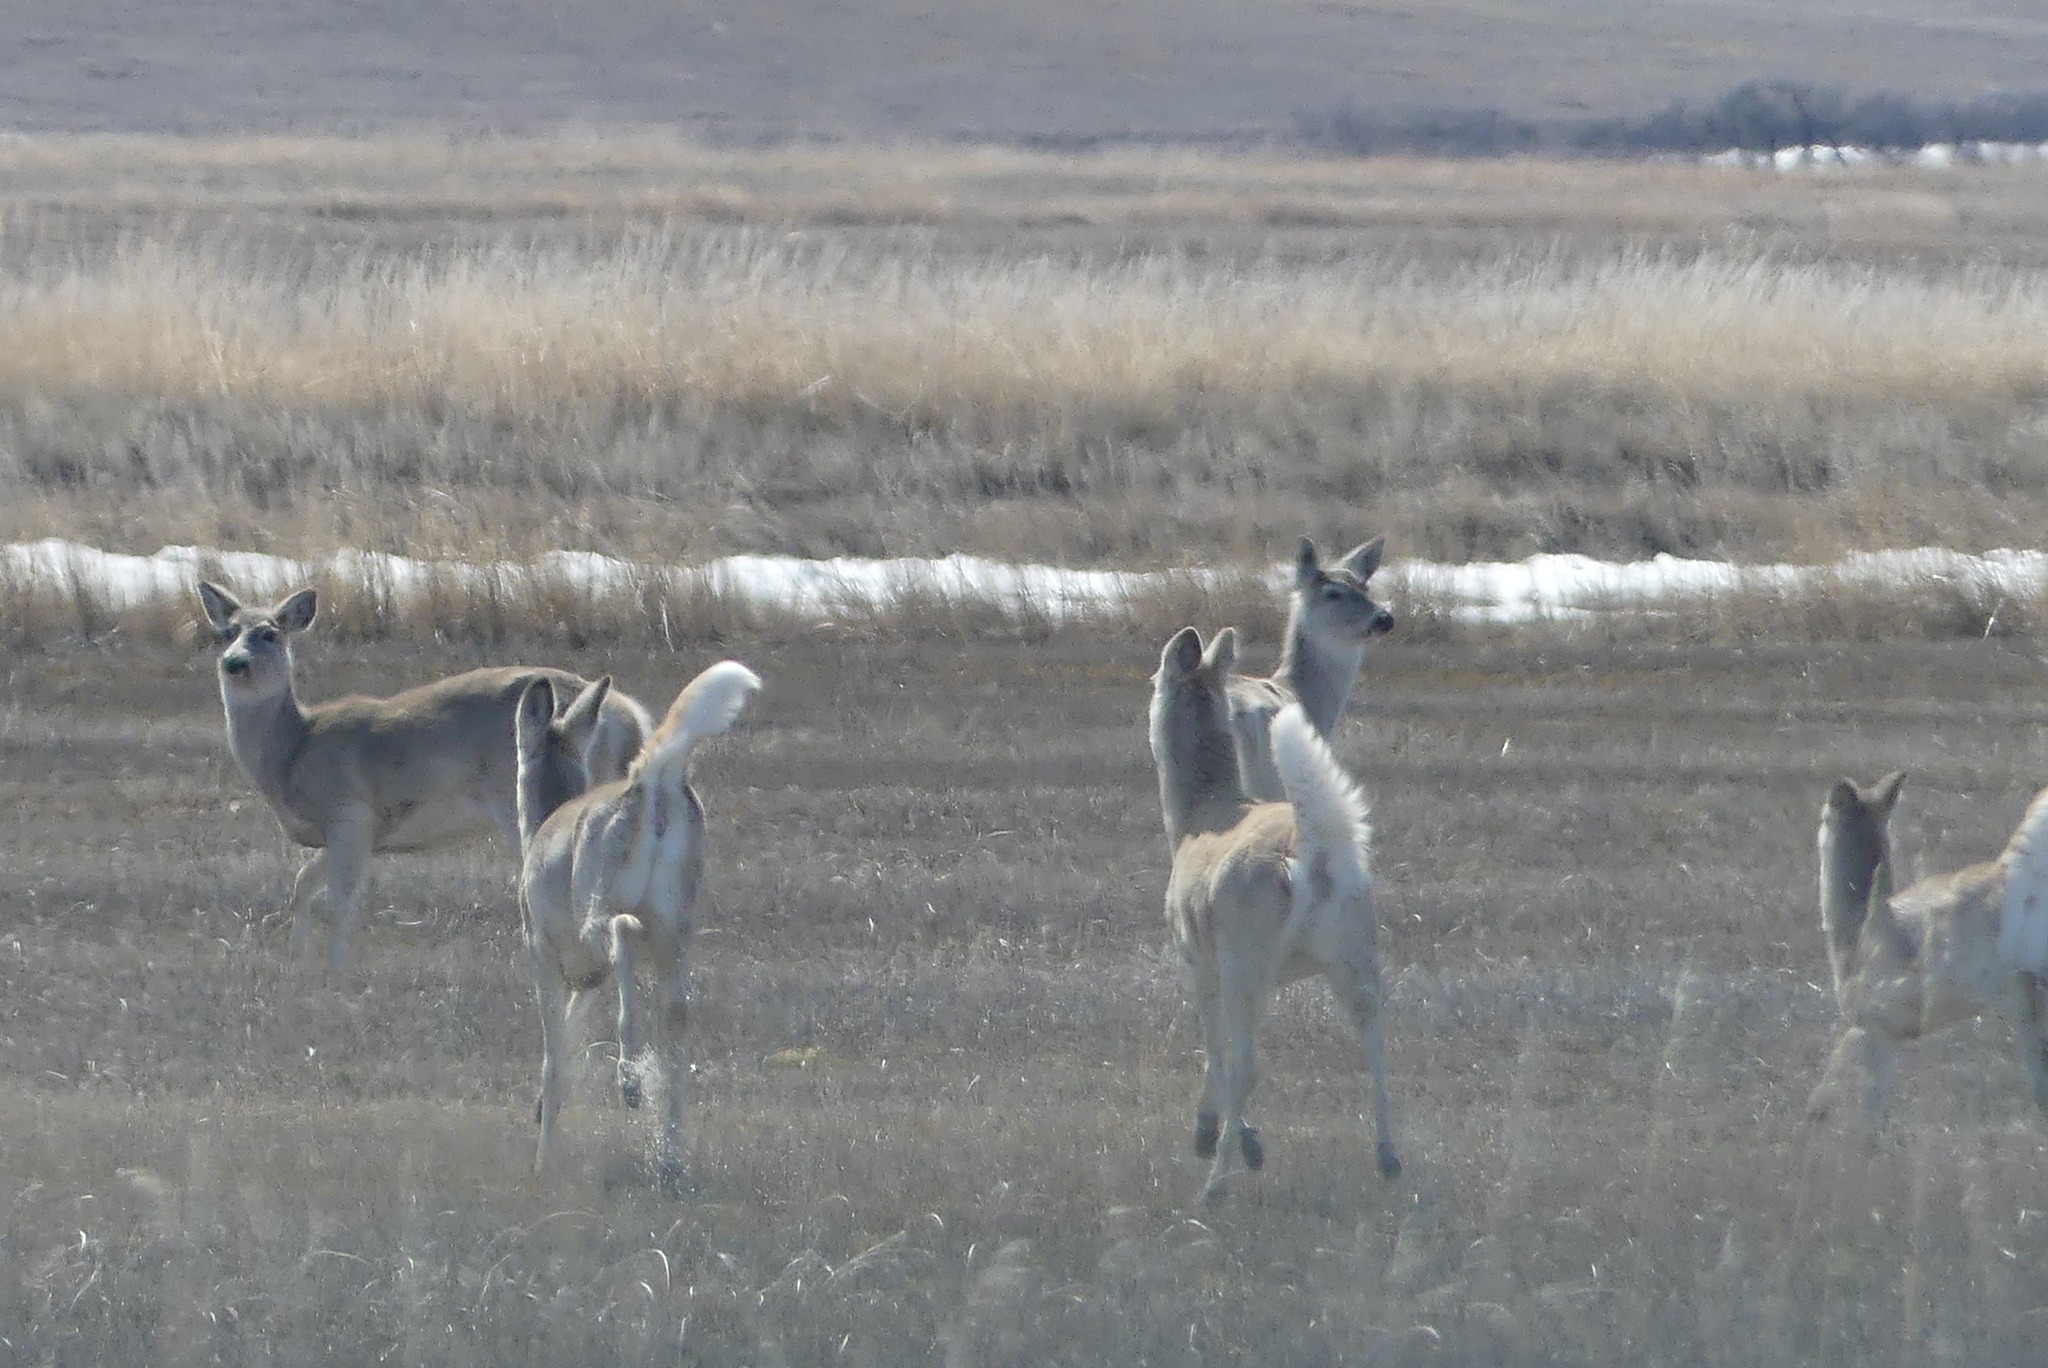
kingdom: Animalia
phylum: Chordata
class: Mammalia
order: Artiodactyla
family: Cervidae
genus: Odocoileus
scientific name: Odocoileus virginianus
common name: White-tailed deer
